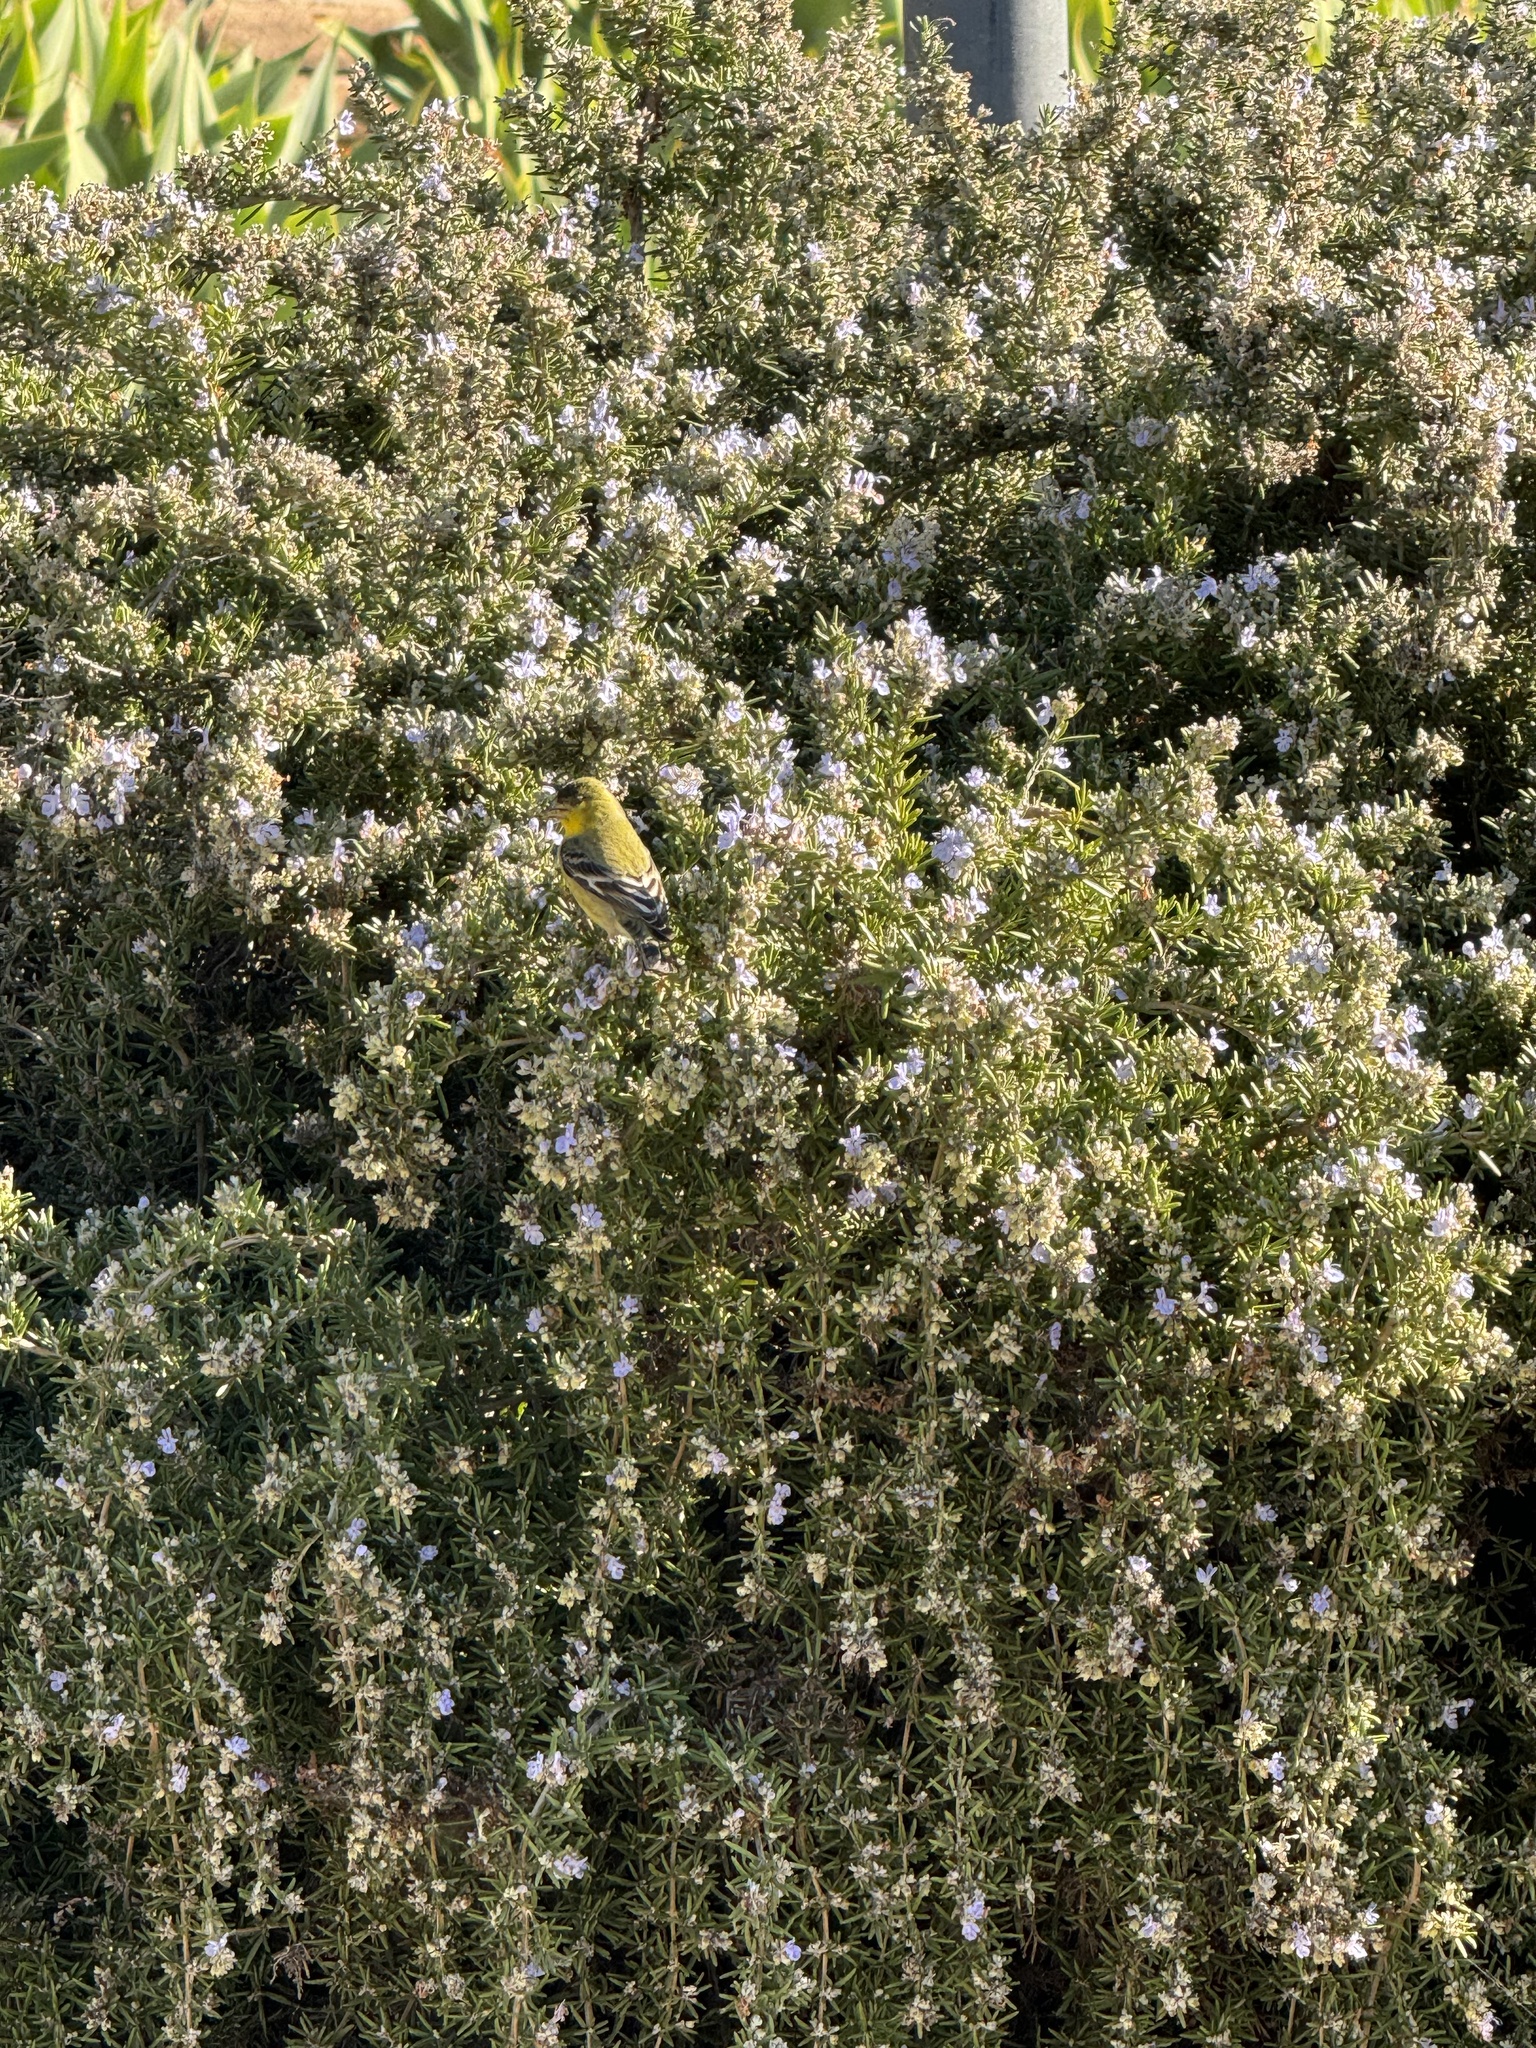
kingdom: Animalia
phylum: Chordata
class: Aves
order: Passeriformes
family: Fringillidae
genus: Spinus
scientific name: Spinus psaltria
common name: Lesser goldfinch
